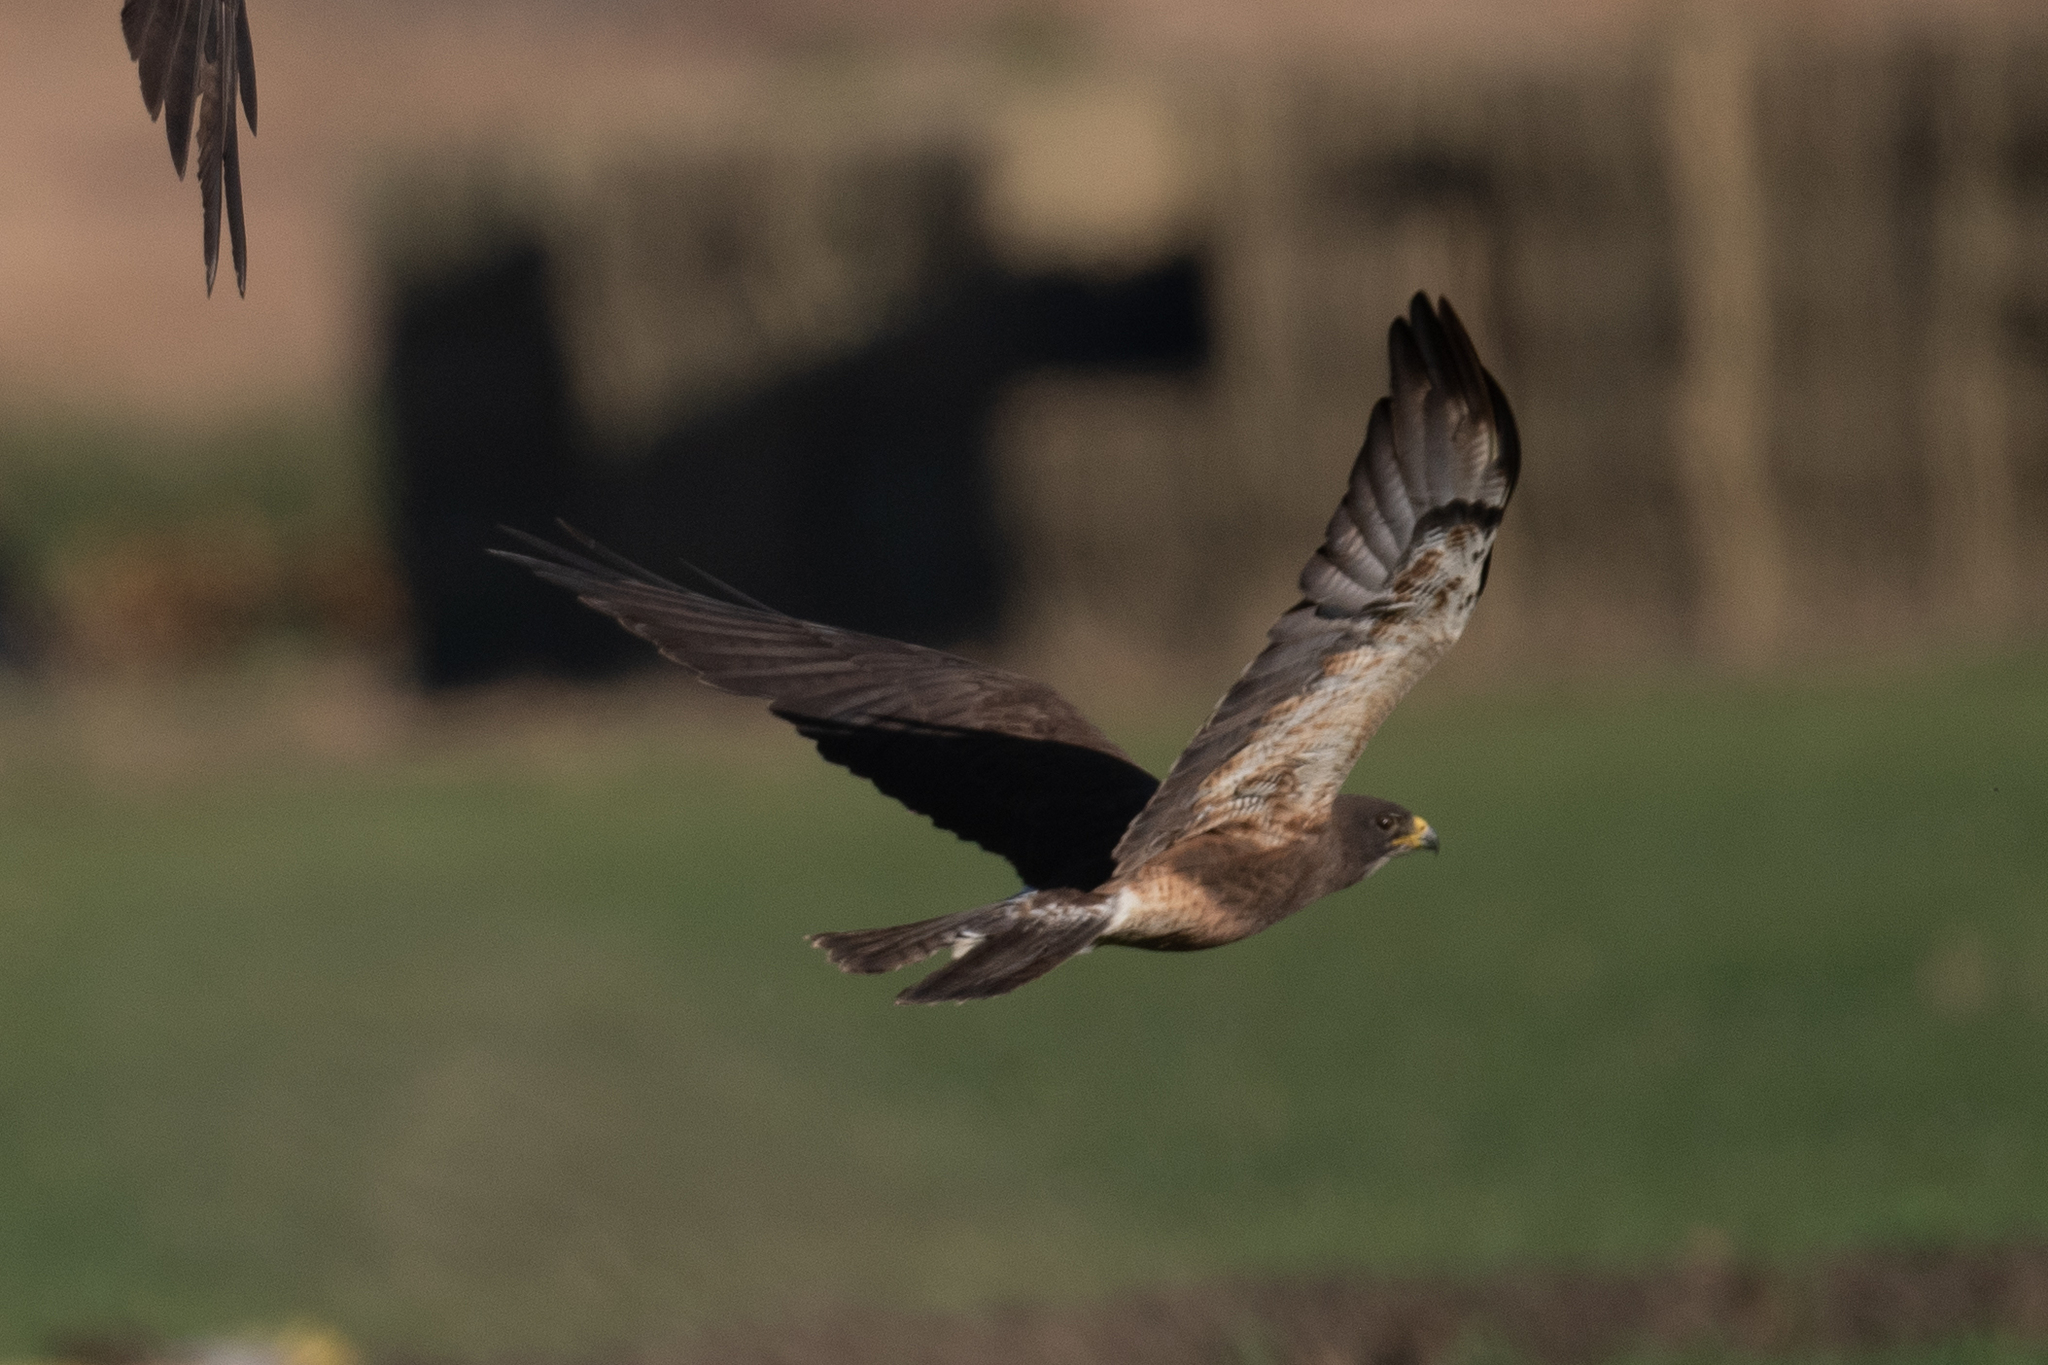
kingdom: Animalia
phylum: Chordata
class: Aves
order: Accipitriformes
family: Accipitridae
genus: Buteo
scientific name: Buteo swainsoni
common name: Swainson's hawk
